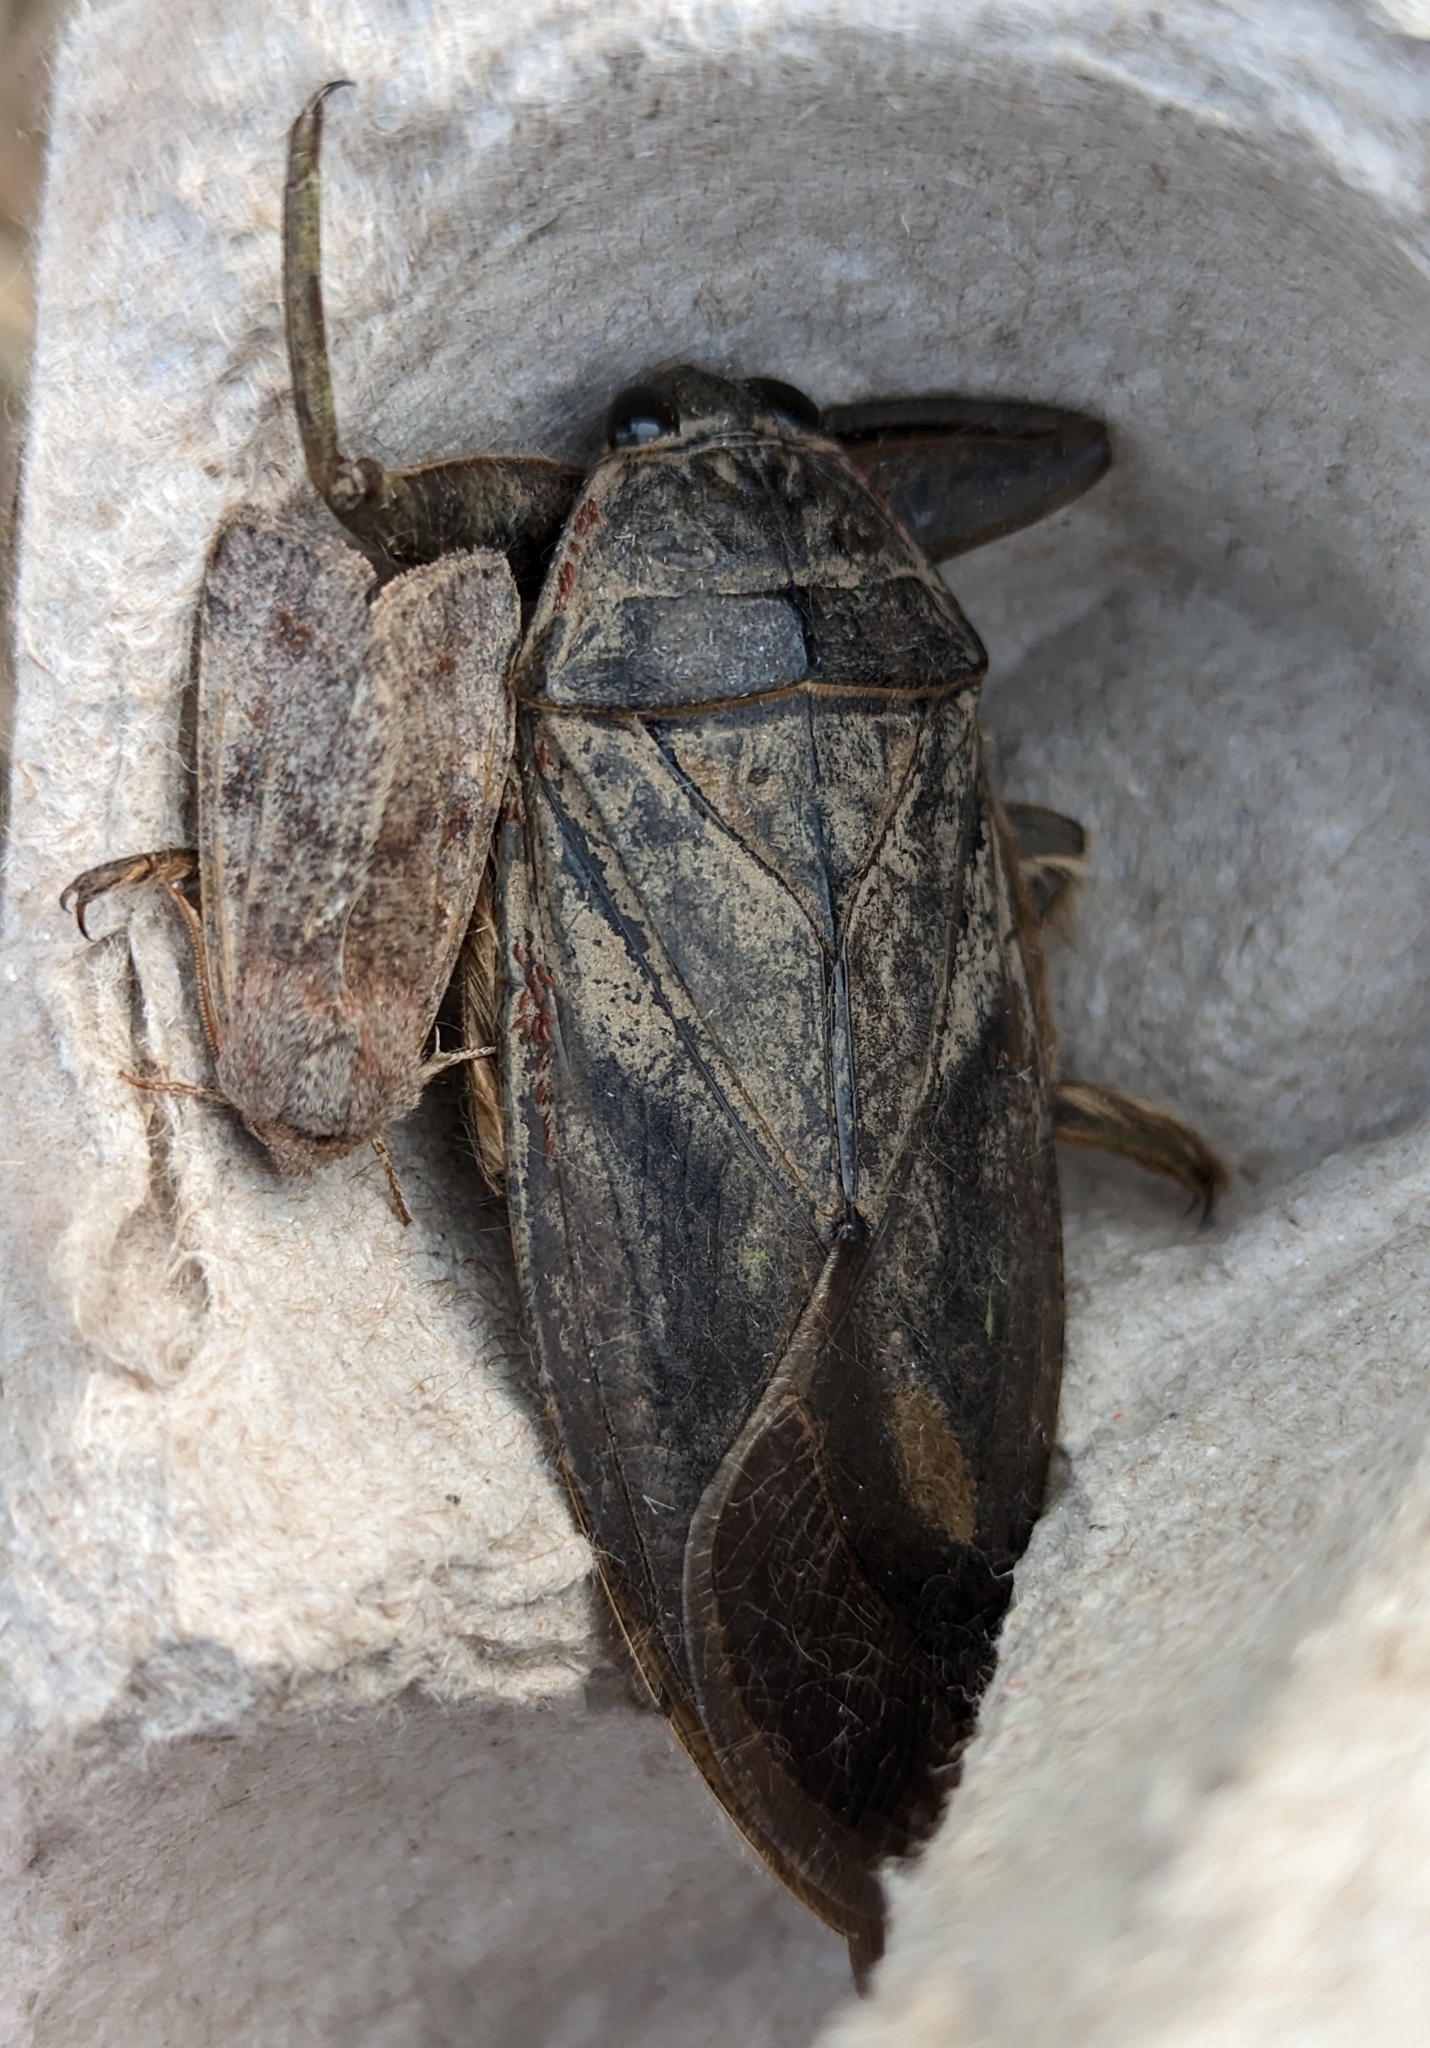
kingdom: Animalia
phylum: Arthropoda
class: Insecta
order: Hemiptera
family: Belostomatidae
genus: Lethocerus
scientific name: Lethocerus americanus
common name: Giant water bug
